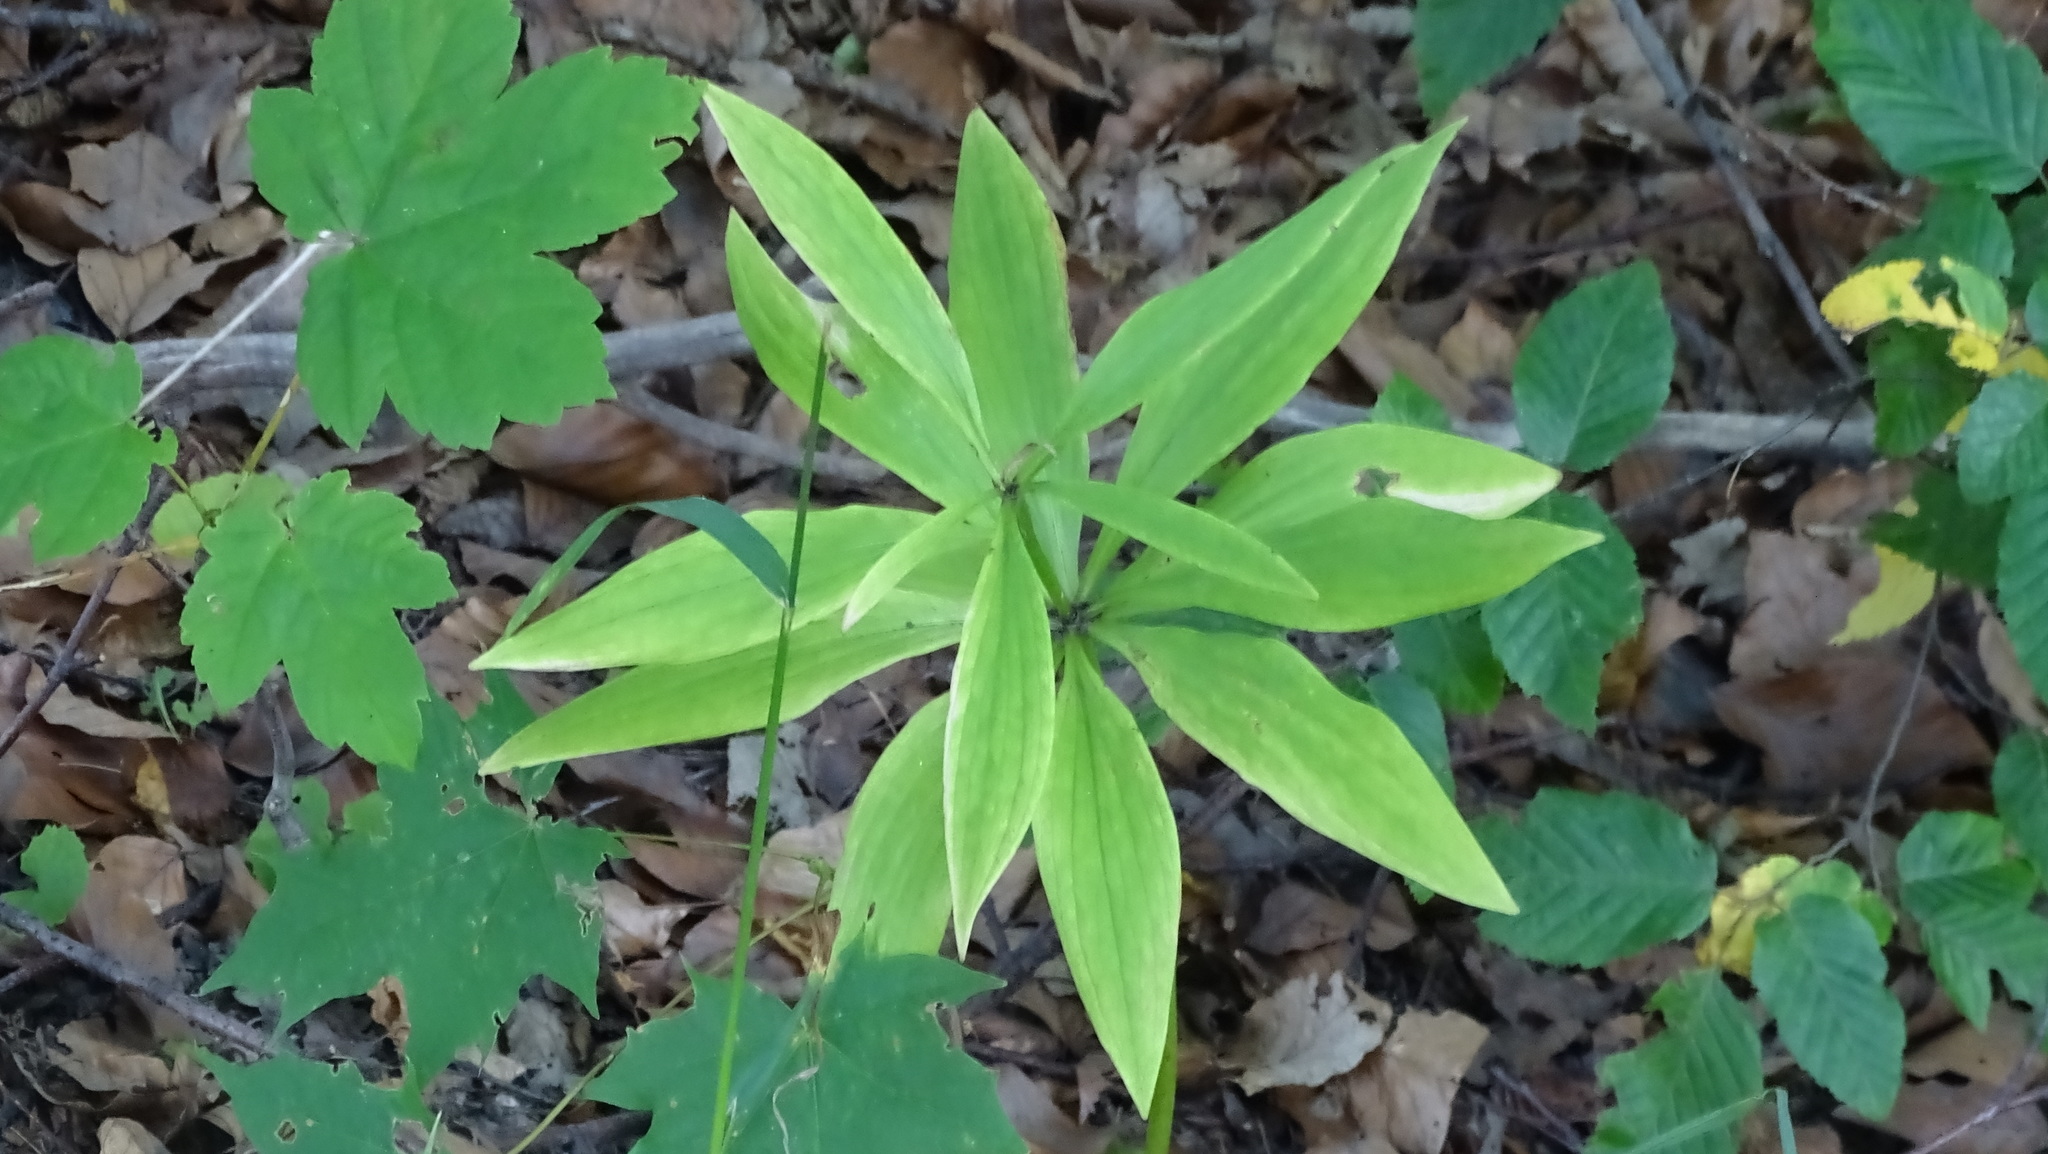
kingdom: Plantae
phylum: Tracheophyta
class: Liliopsida
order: Liliales
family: Liliaceae
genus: Lilium
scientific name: Lilium martagon
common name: Martagon lily
